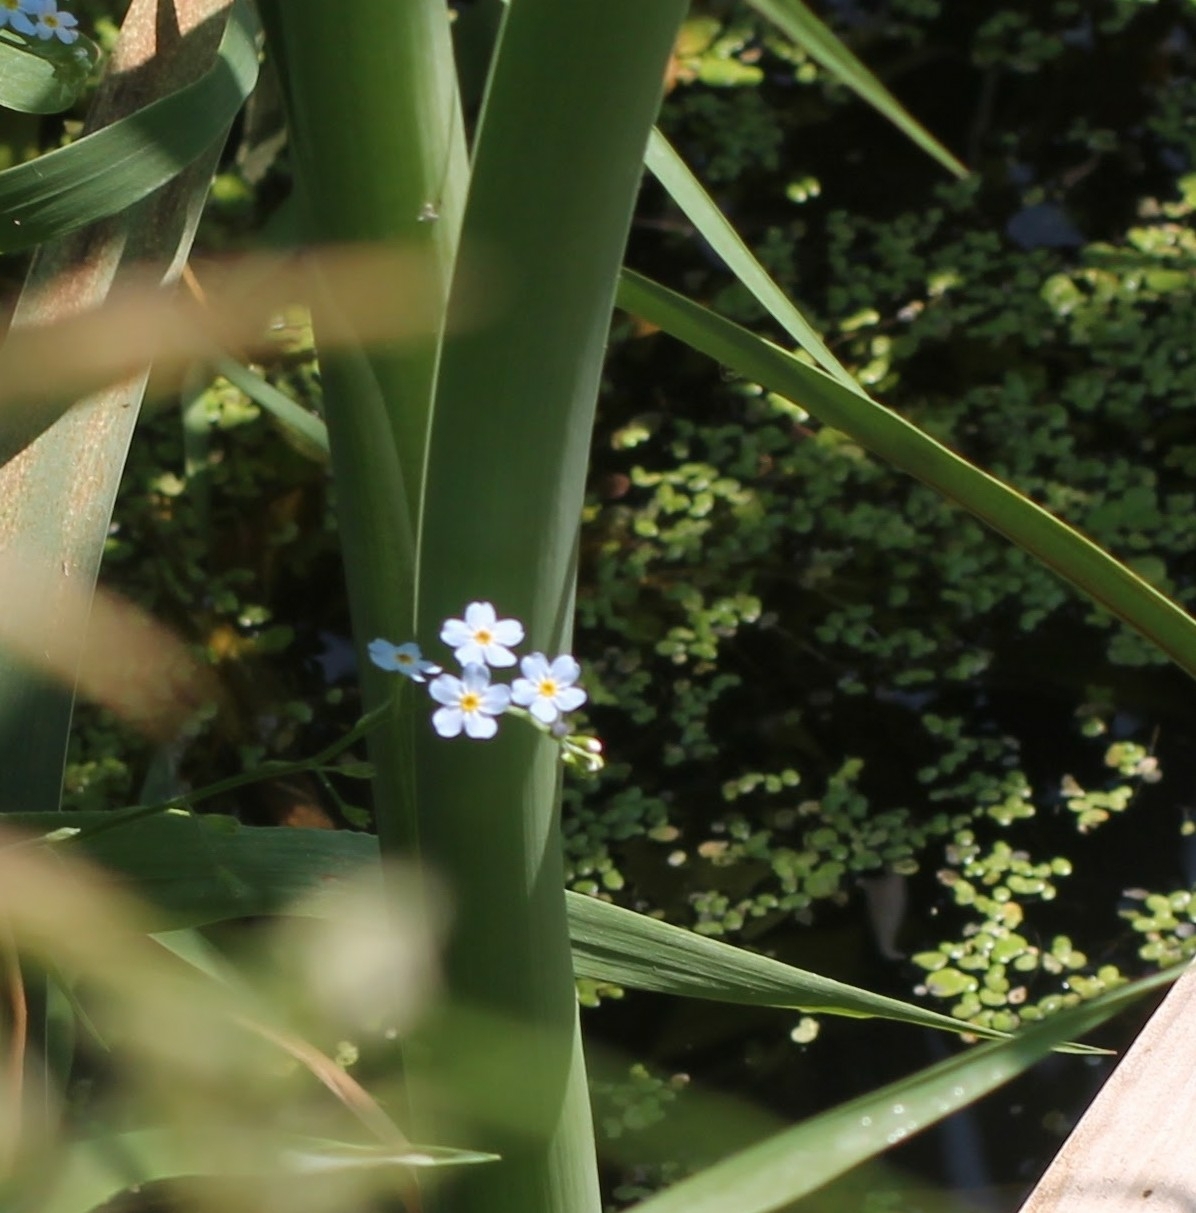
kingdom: Plantae
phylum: Tracheophyta
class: Magnoliopsida
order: Boraginales
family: Boraginaceae
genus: Myosotis
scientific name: Myosotis scorpioides
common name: Water forget-me-not
